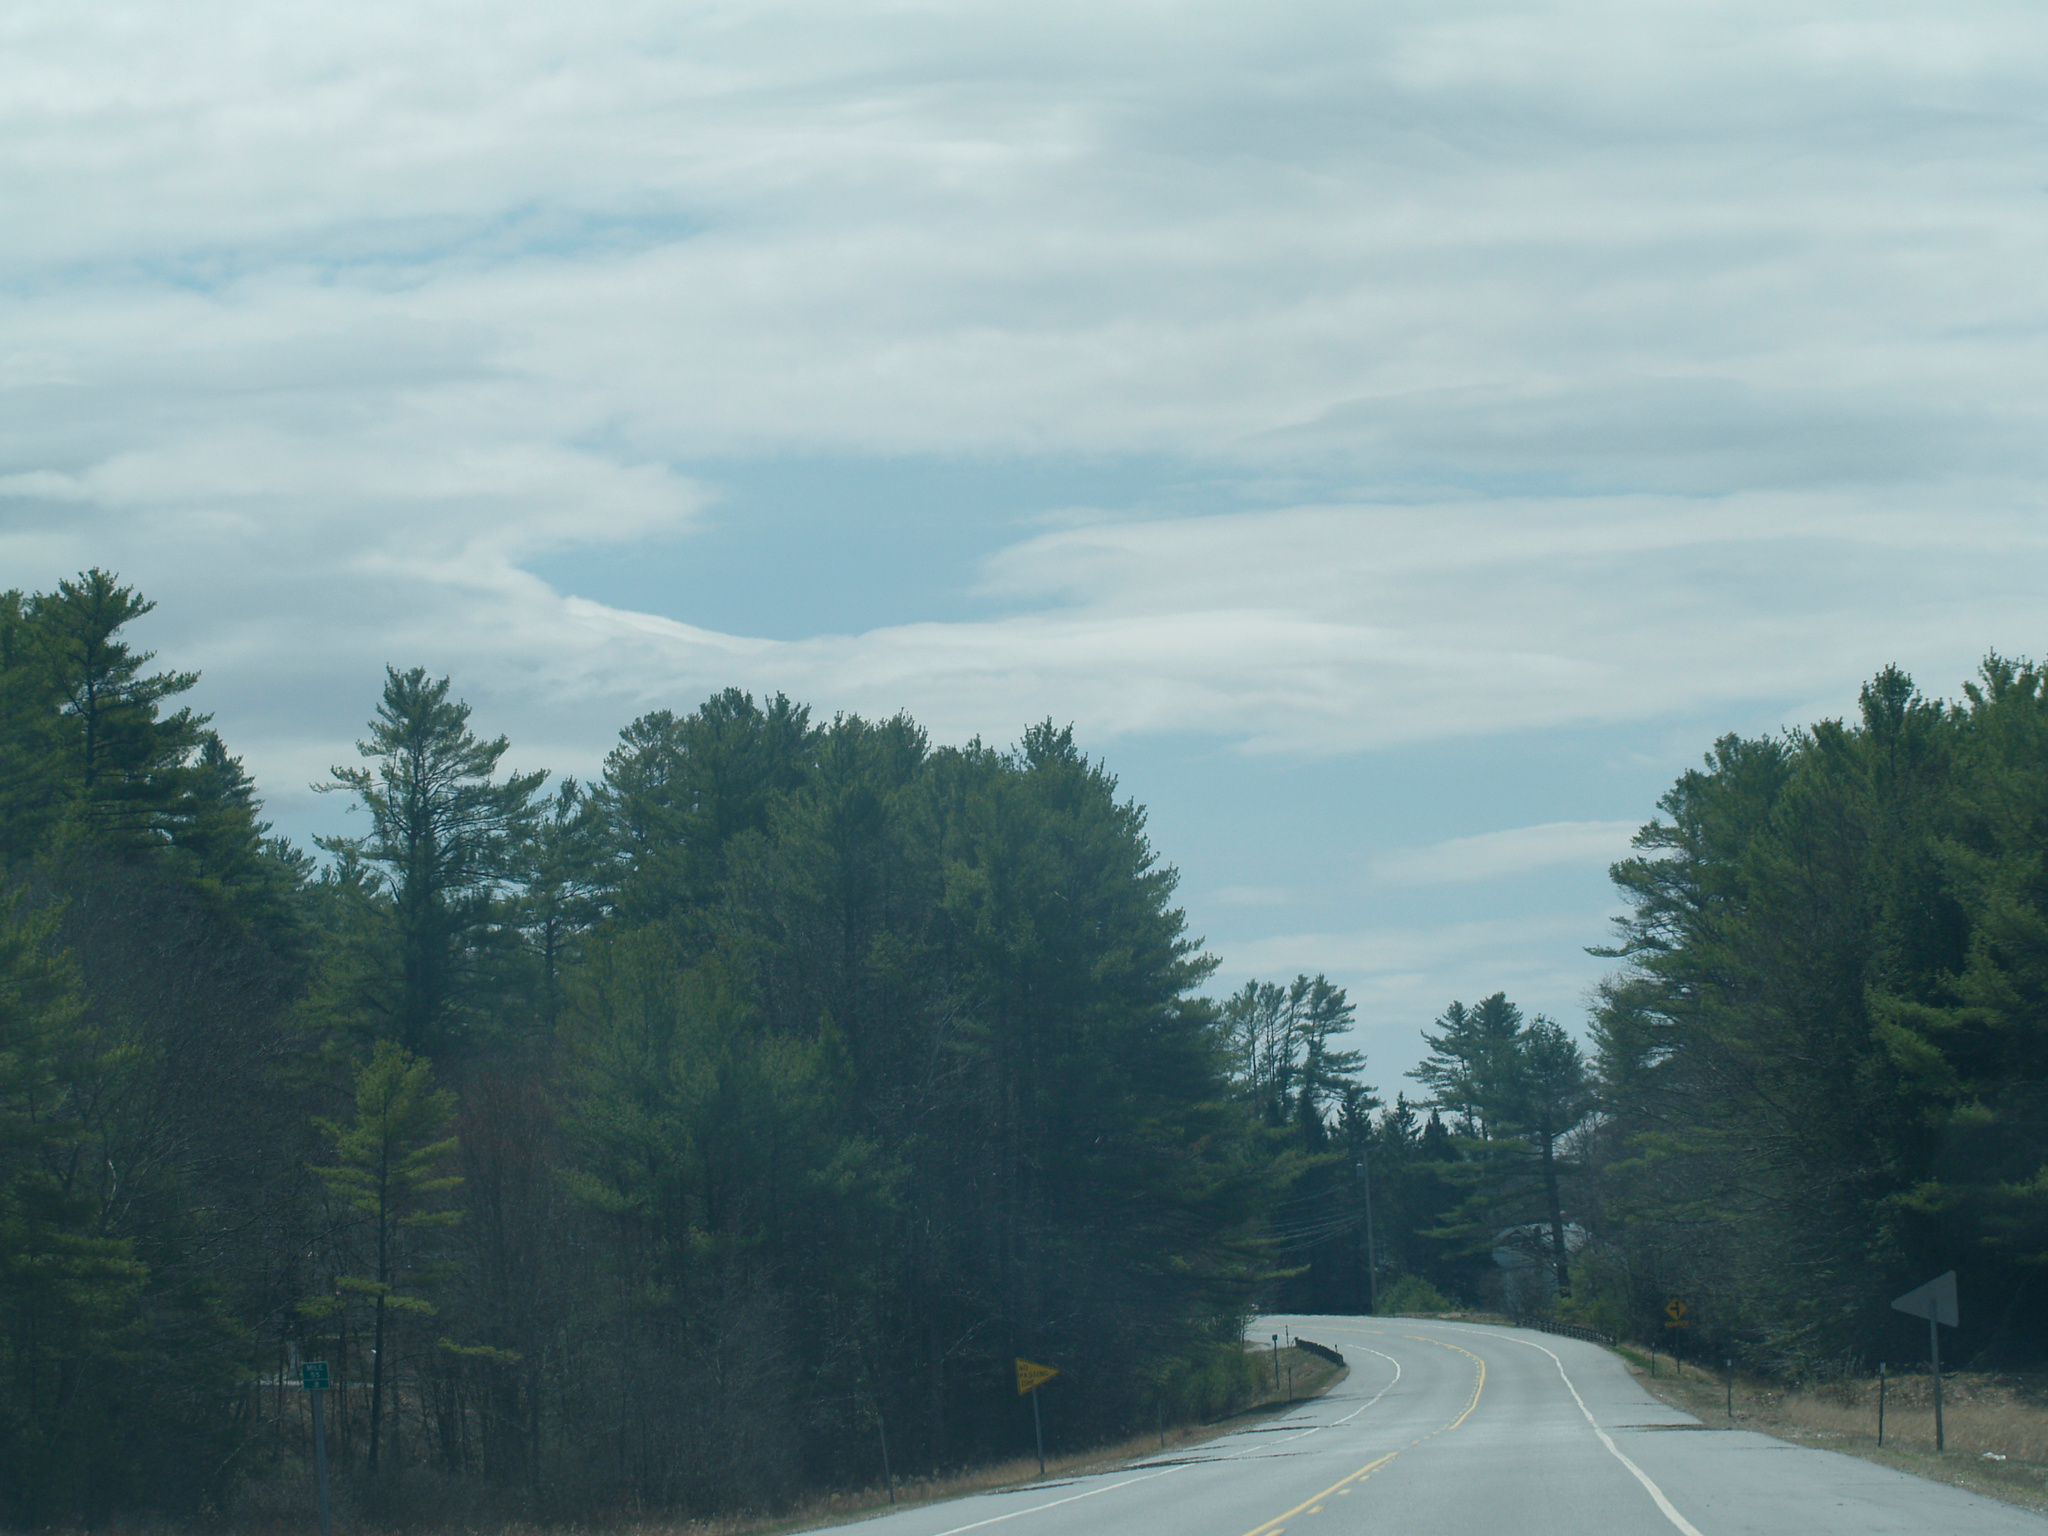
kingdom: Plantae
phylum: Tracheophyta
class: Pinopsida
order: Pinales
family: Pinaceae
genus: Pinus
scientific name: Pinus strobus
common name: Weymouth pine
